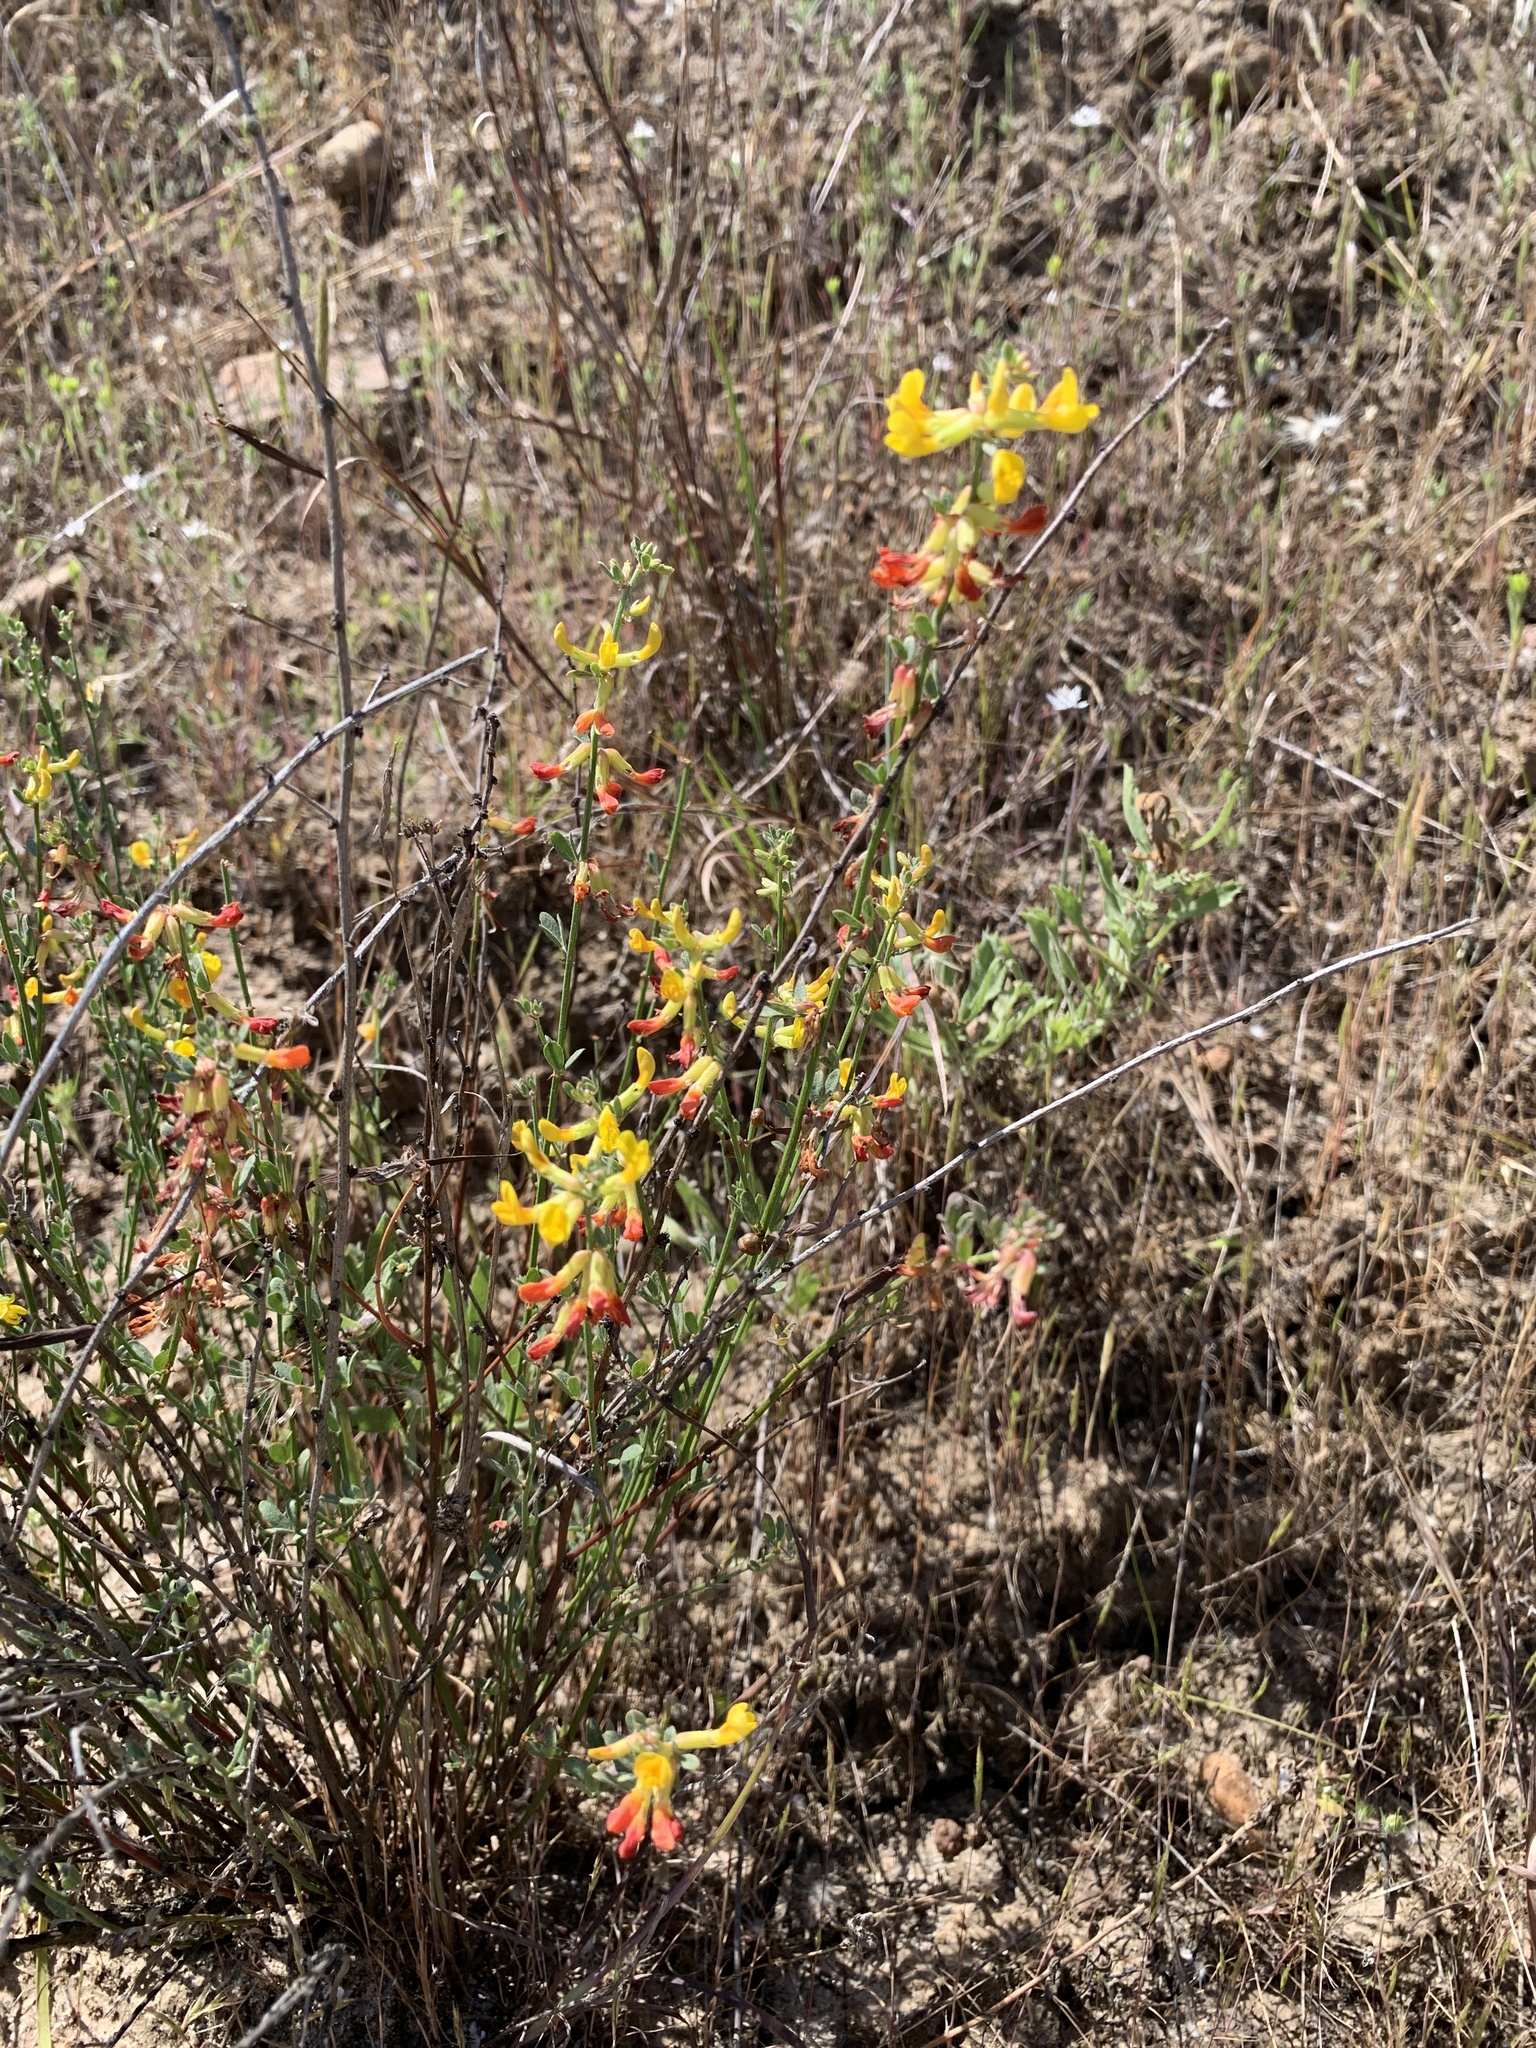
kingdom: Plantae
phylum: Tracheophyta
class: Magnoliopsida
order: Fabales
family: Fabaceae
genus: Acmispon
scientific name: Acmispon glaber
